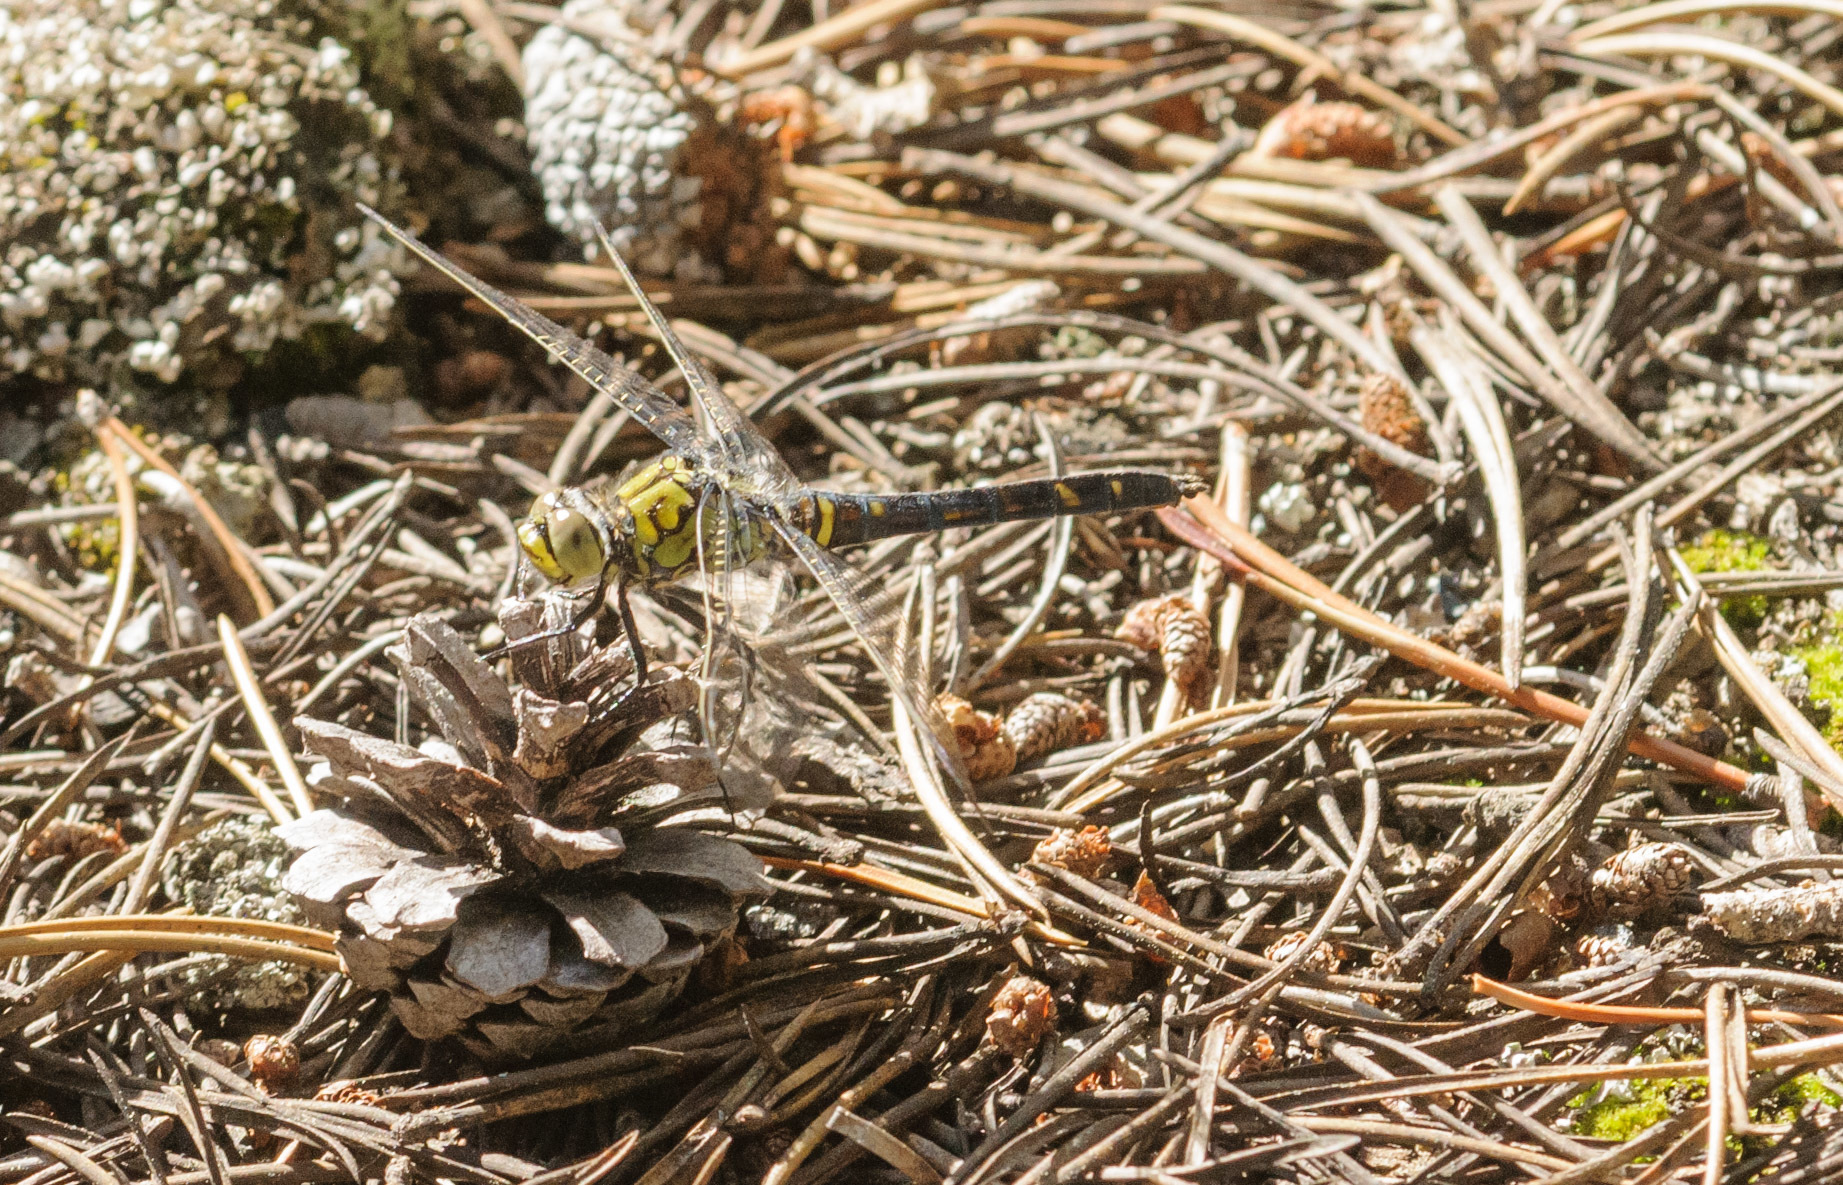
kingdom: Animalia
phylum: Arthropoda
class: Insecta
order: Odonata
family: Libellulidae
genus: Erythemis
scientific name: Erythemis collocata
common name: Western pondhawk
